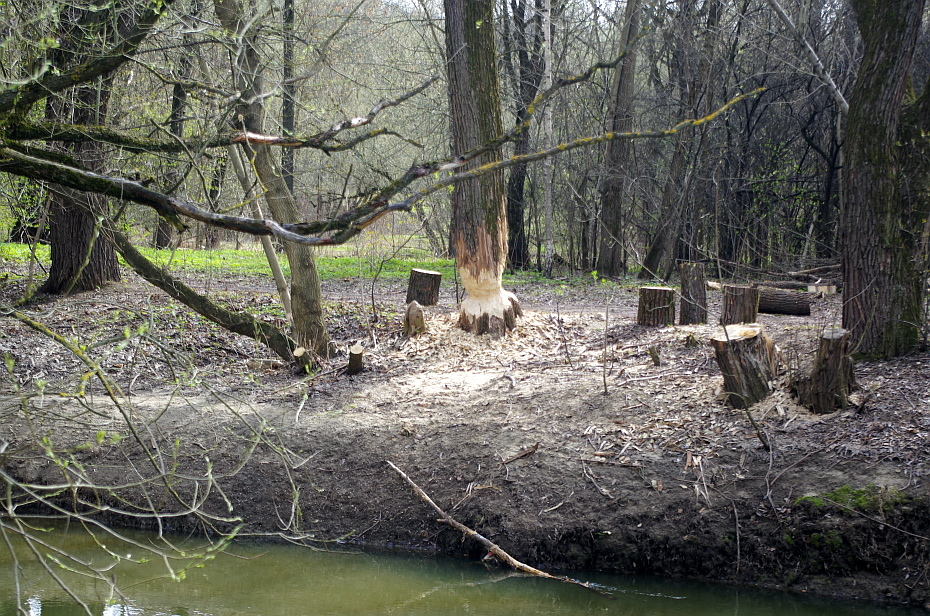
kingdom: Animalia
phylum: Chordata
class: Mammalia
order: Rodentia
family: Castoridae
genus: Castor
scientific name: Castor fiber
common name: Eurasian beaver
